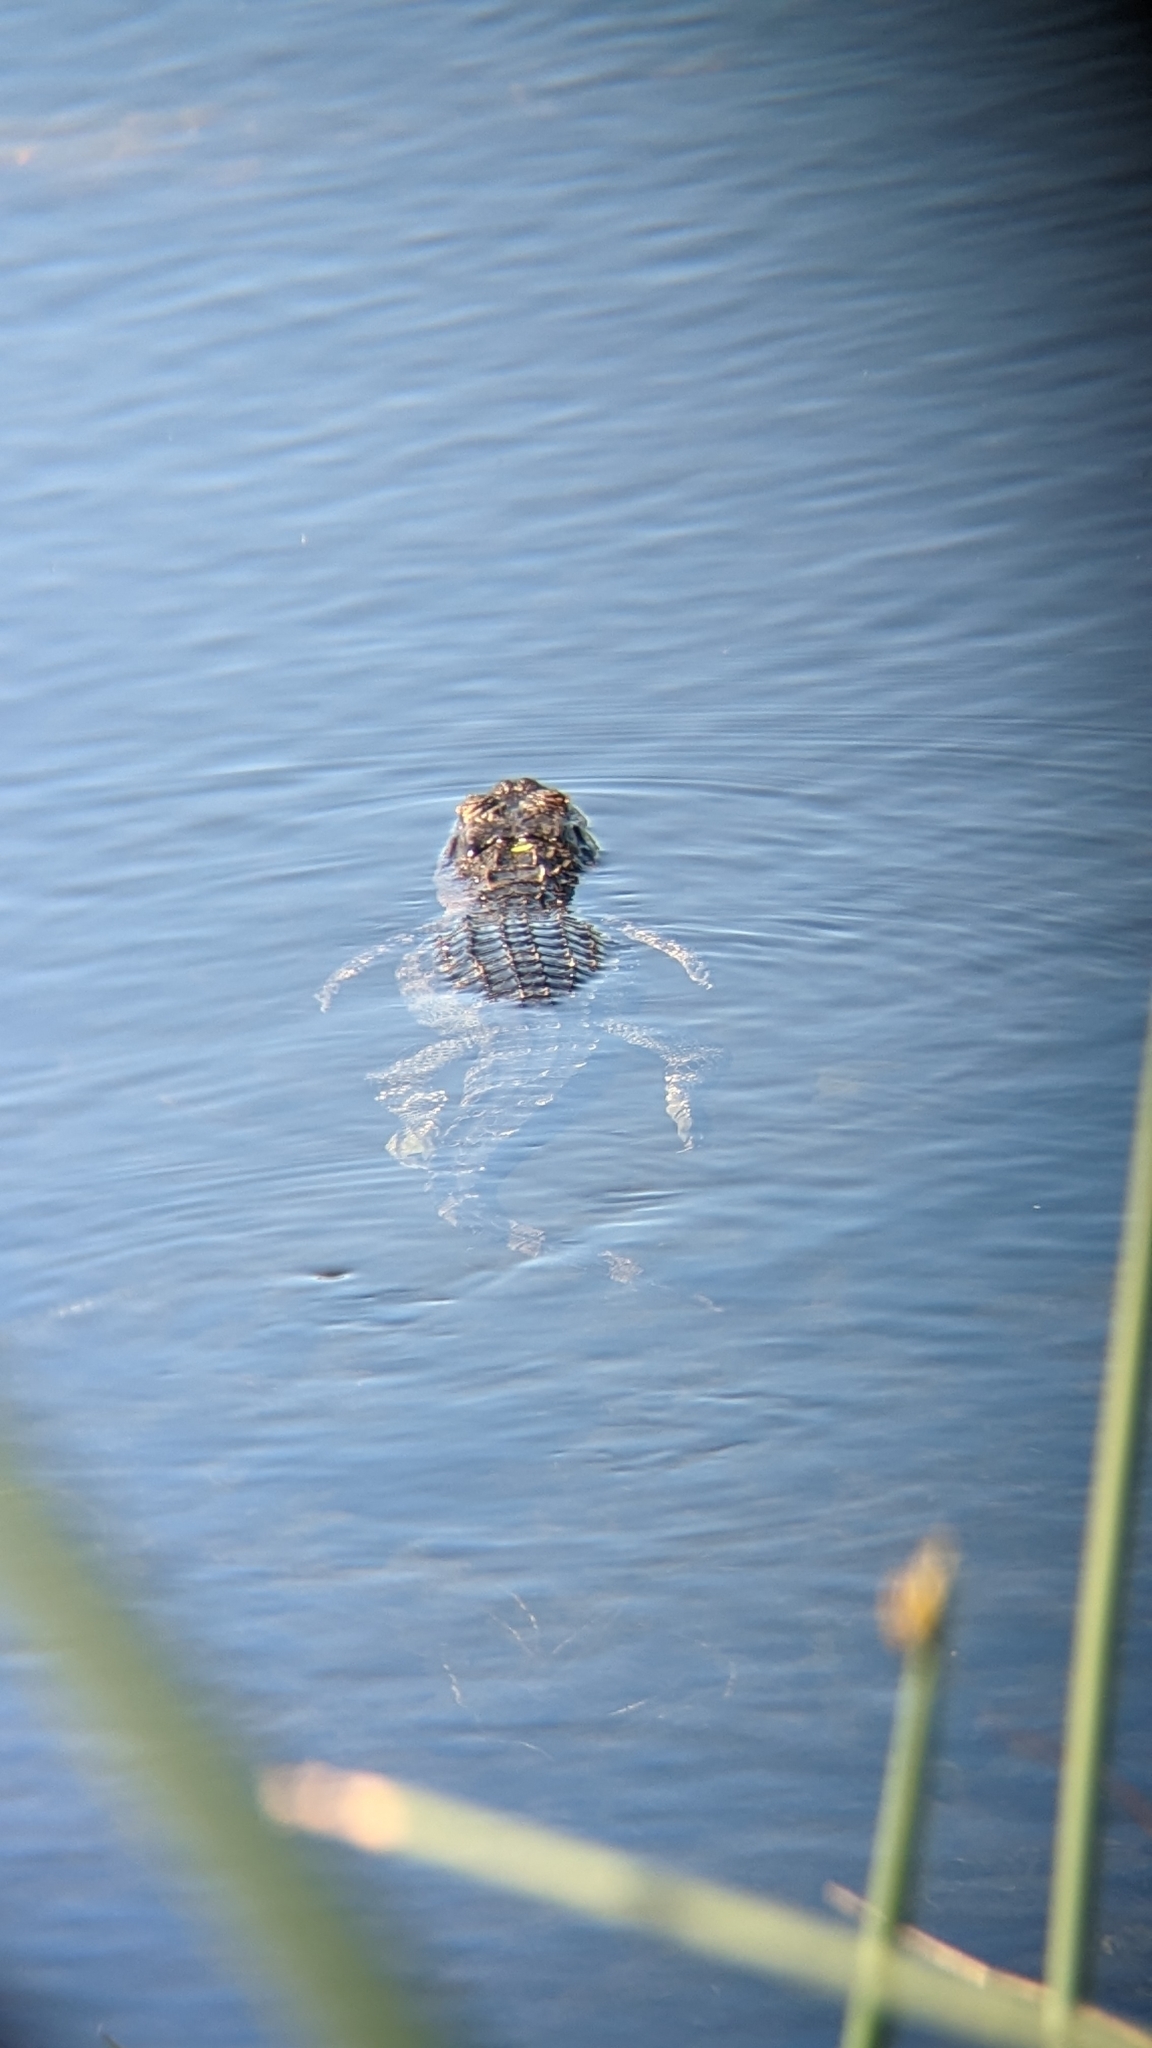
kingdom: Animalia
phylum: Chordata
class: Crocodylia
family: Alligatoridae
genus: Alligator
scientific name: Alligator mississippiensis
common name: American alligator
